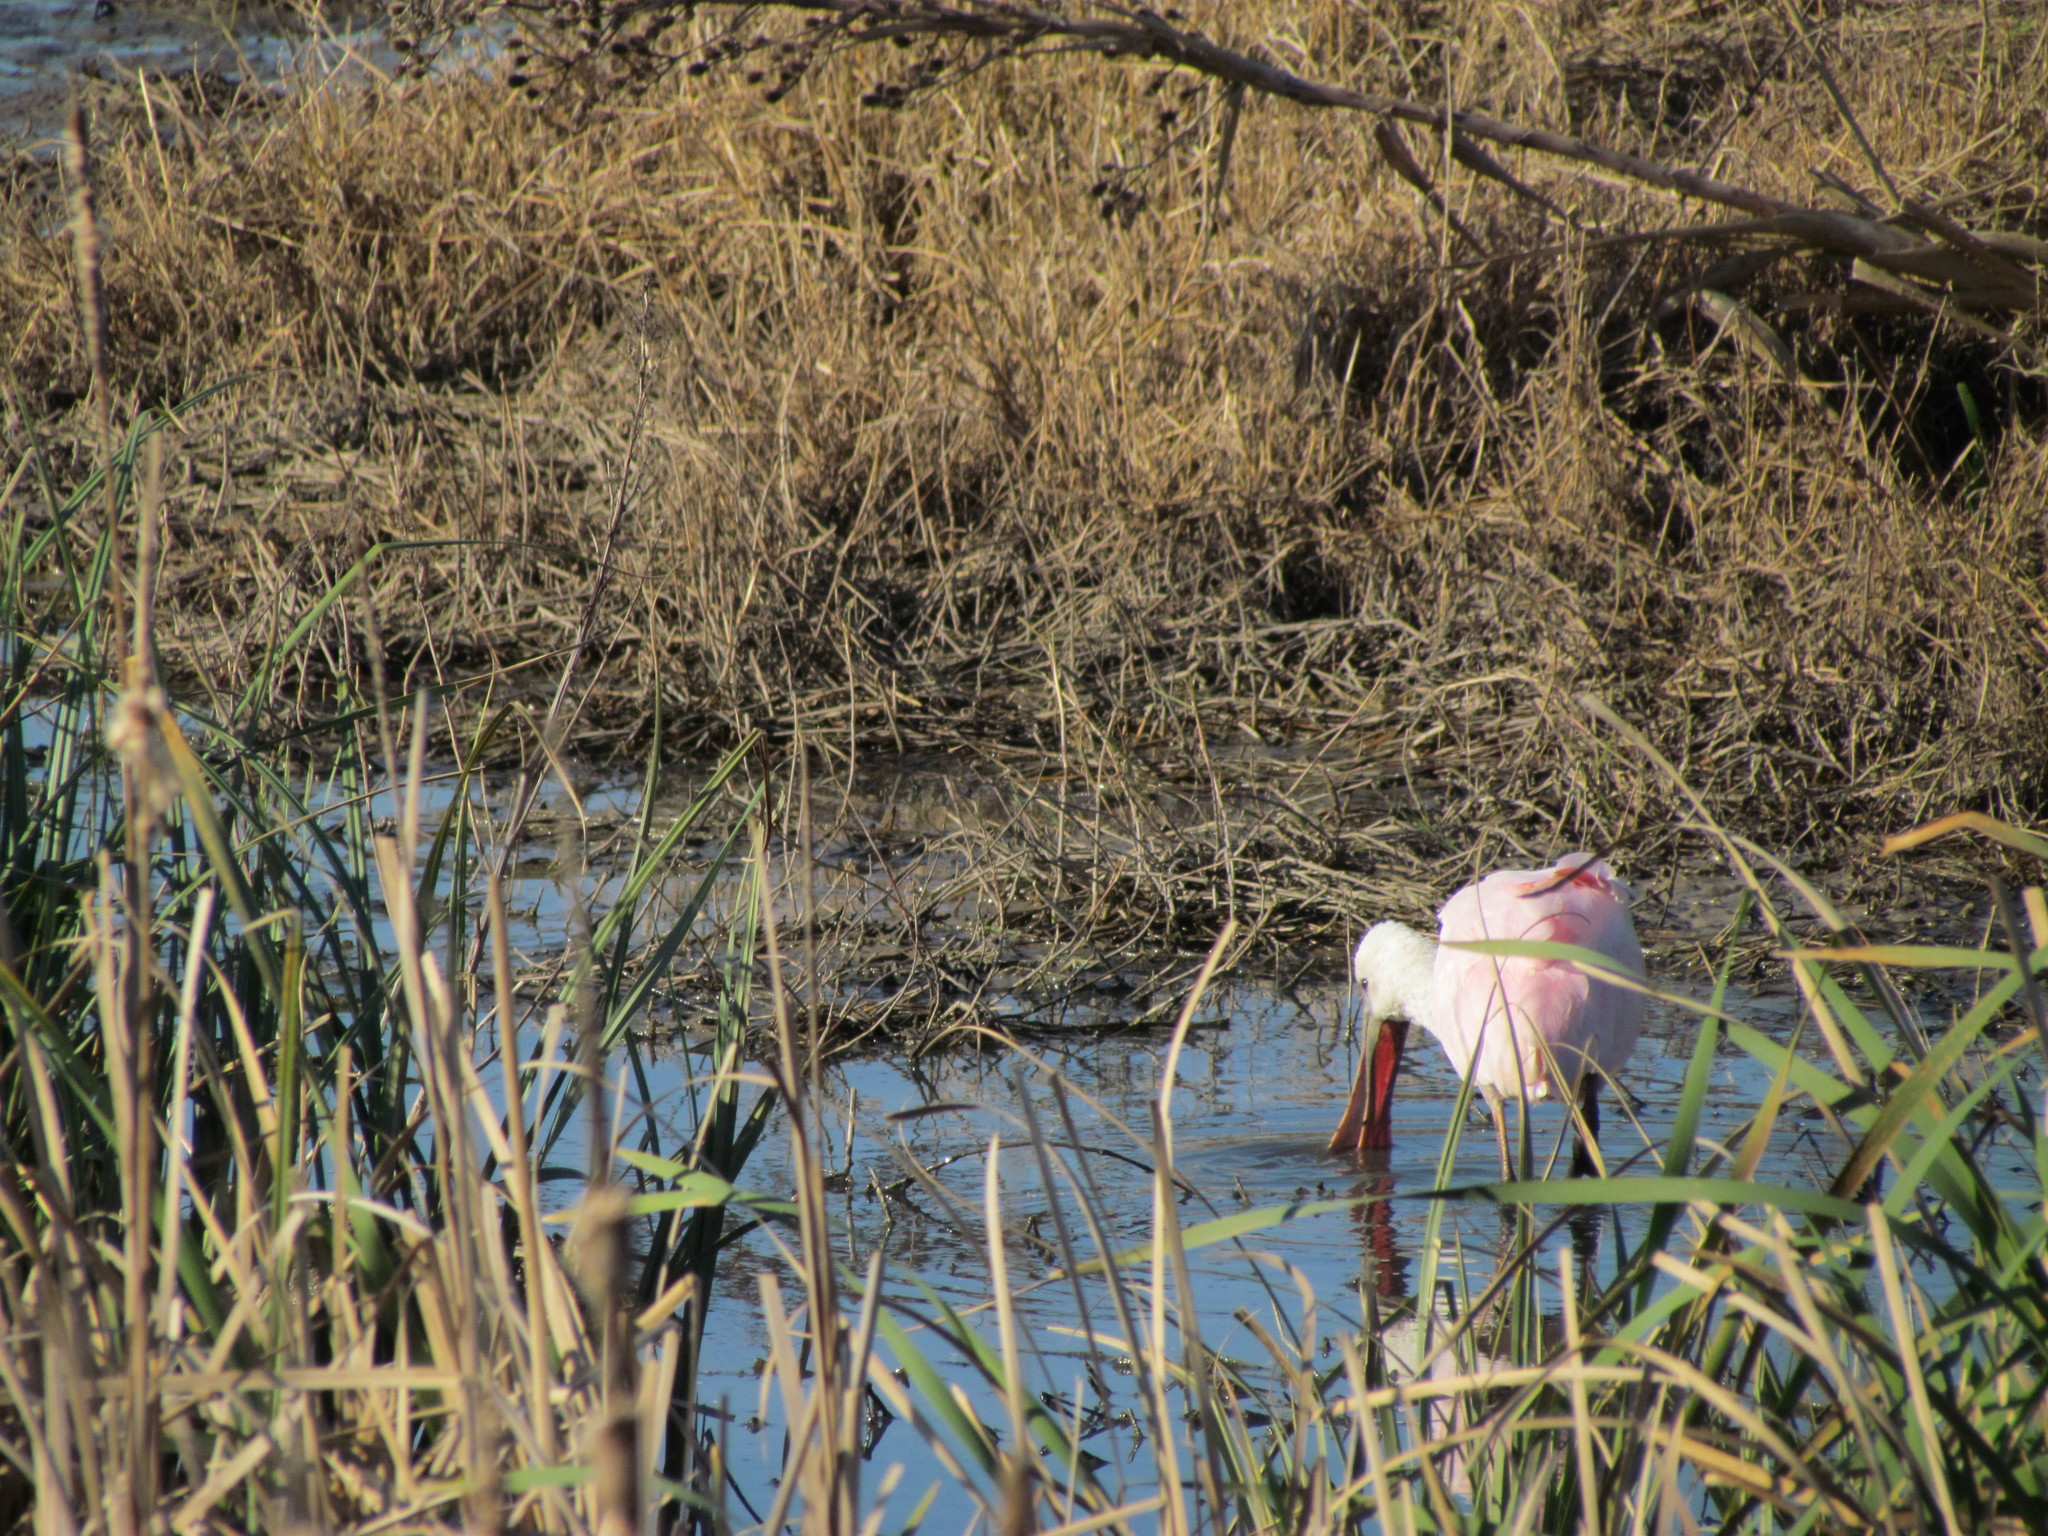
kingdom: Animalia
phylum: Chordata
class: Aves
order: Pelecaniformes
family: Threskiornithidae
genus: Platalea
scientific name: Platalea ajaja
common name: Roseate spoonbill
